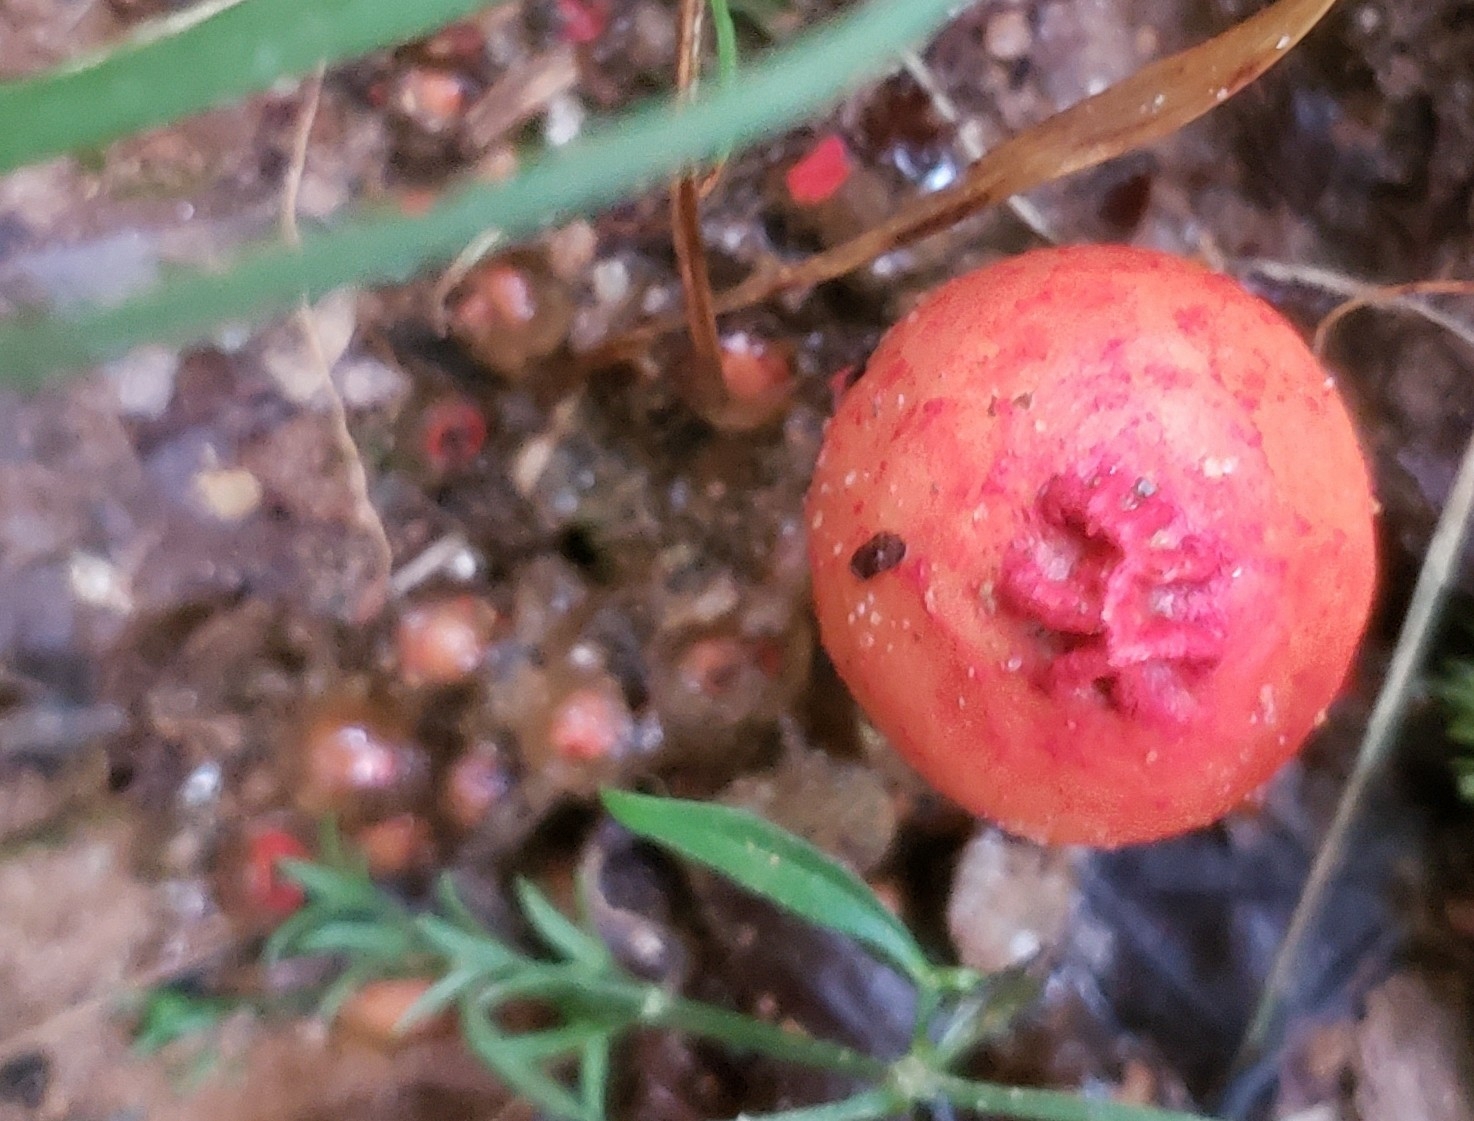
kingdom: Fungi
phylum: Basidiomycota
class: Agaricomycetes
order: Boletales
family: Calostomataceae
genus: Calostoma
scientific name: Calostoma cinnabarinum
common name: Stalked puffball-in-aspic
